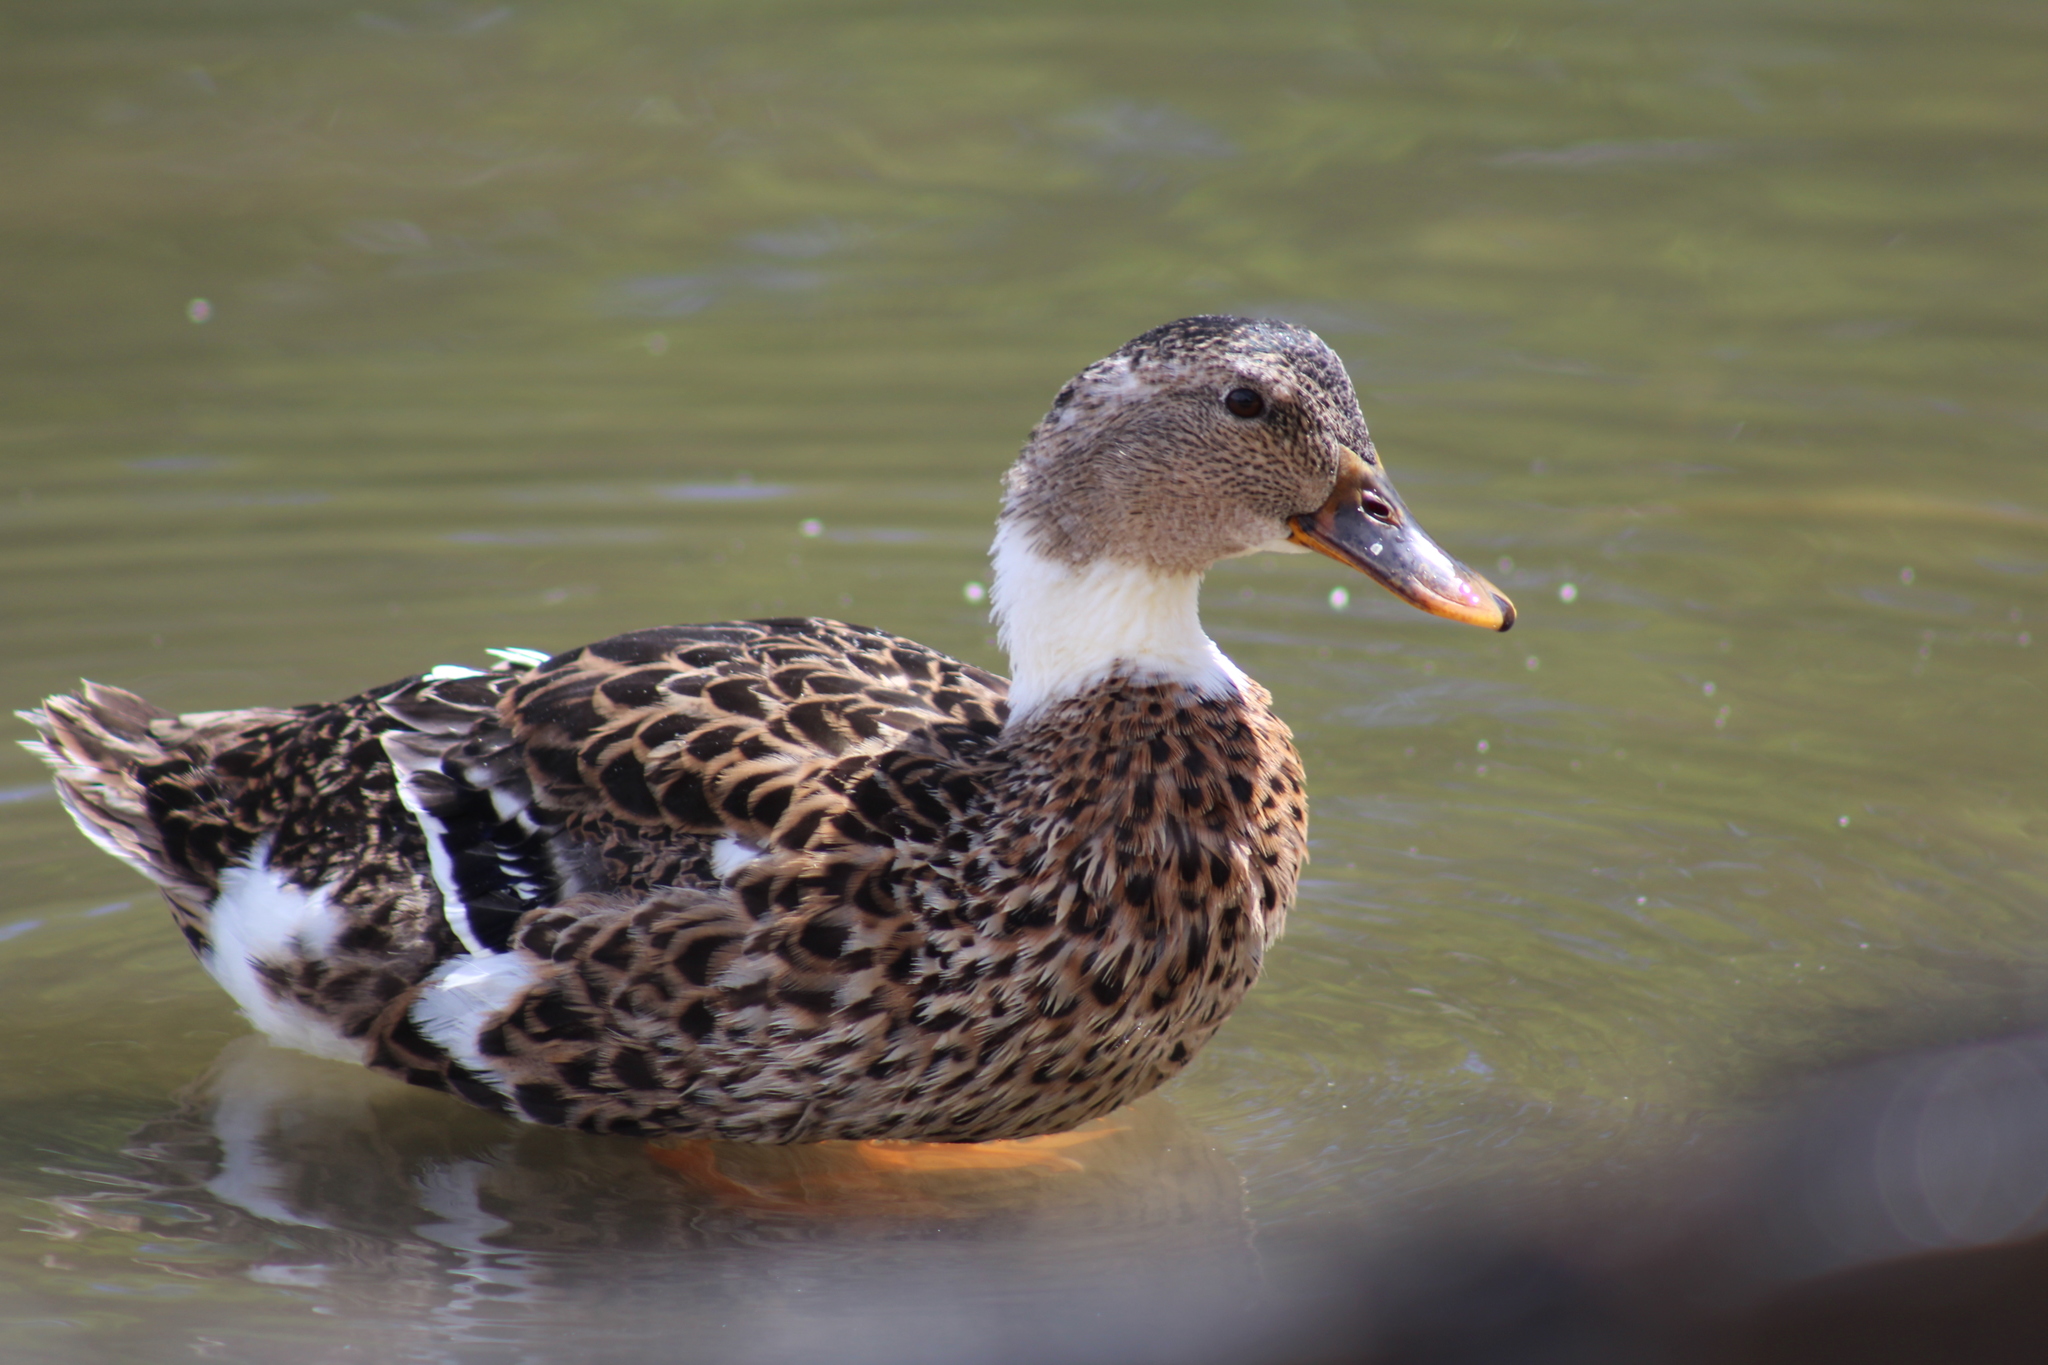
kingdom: Animalia
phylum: Chordata
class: Aves
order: Anseriformes
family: Anatidae
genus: Anas
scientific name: Anas platyrhynchos
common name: Mallard
